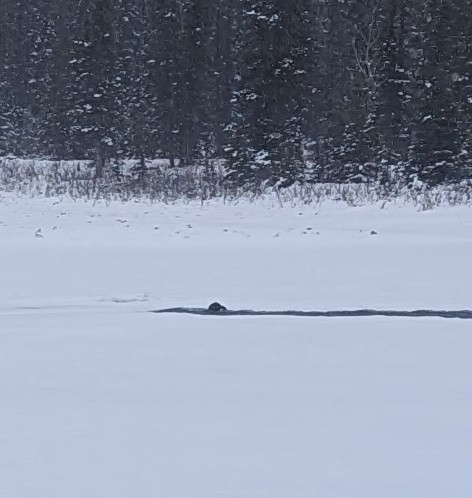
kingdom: Animalia
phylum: Chordata
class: Mammalia
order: Carnivora
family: Mustelidae
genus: Lontra
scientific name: Lontra canadensis
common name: North american river otter
